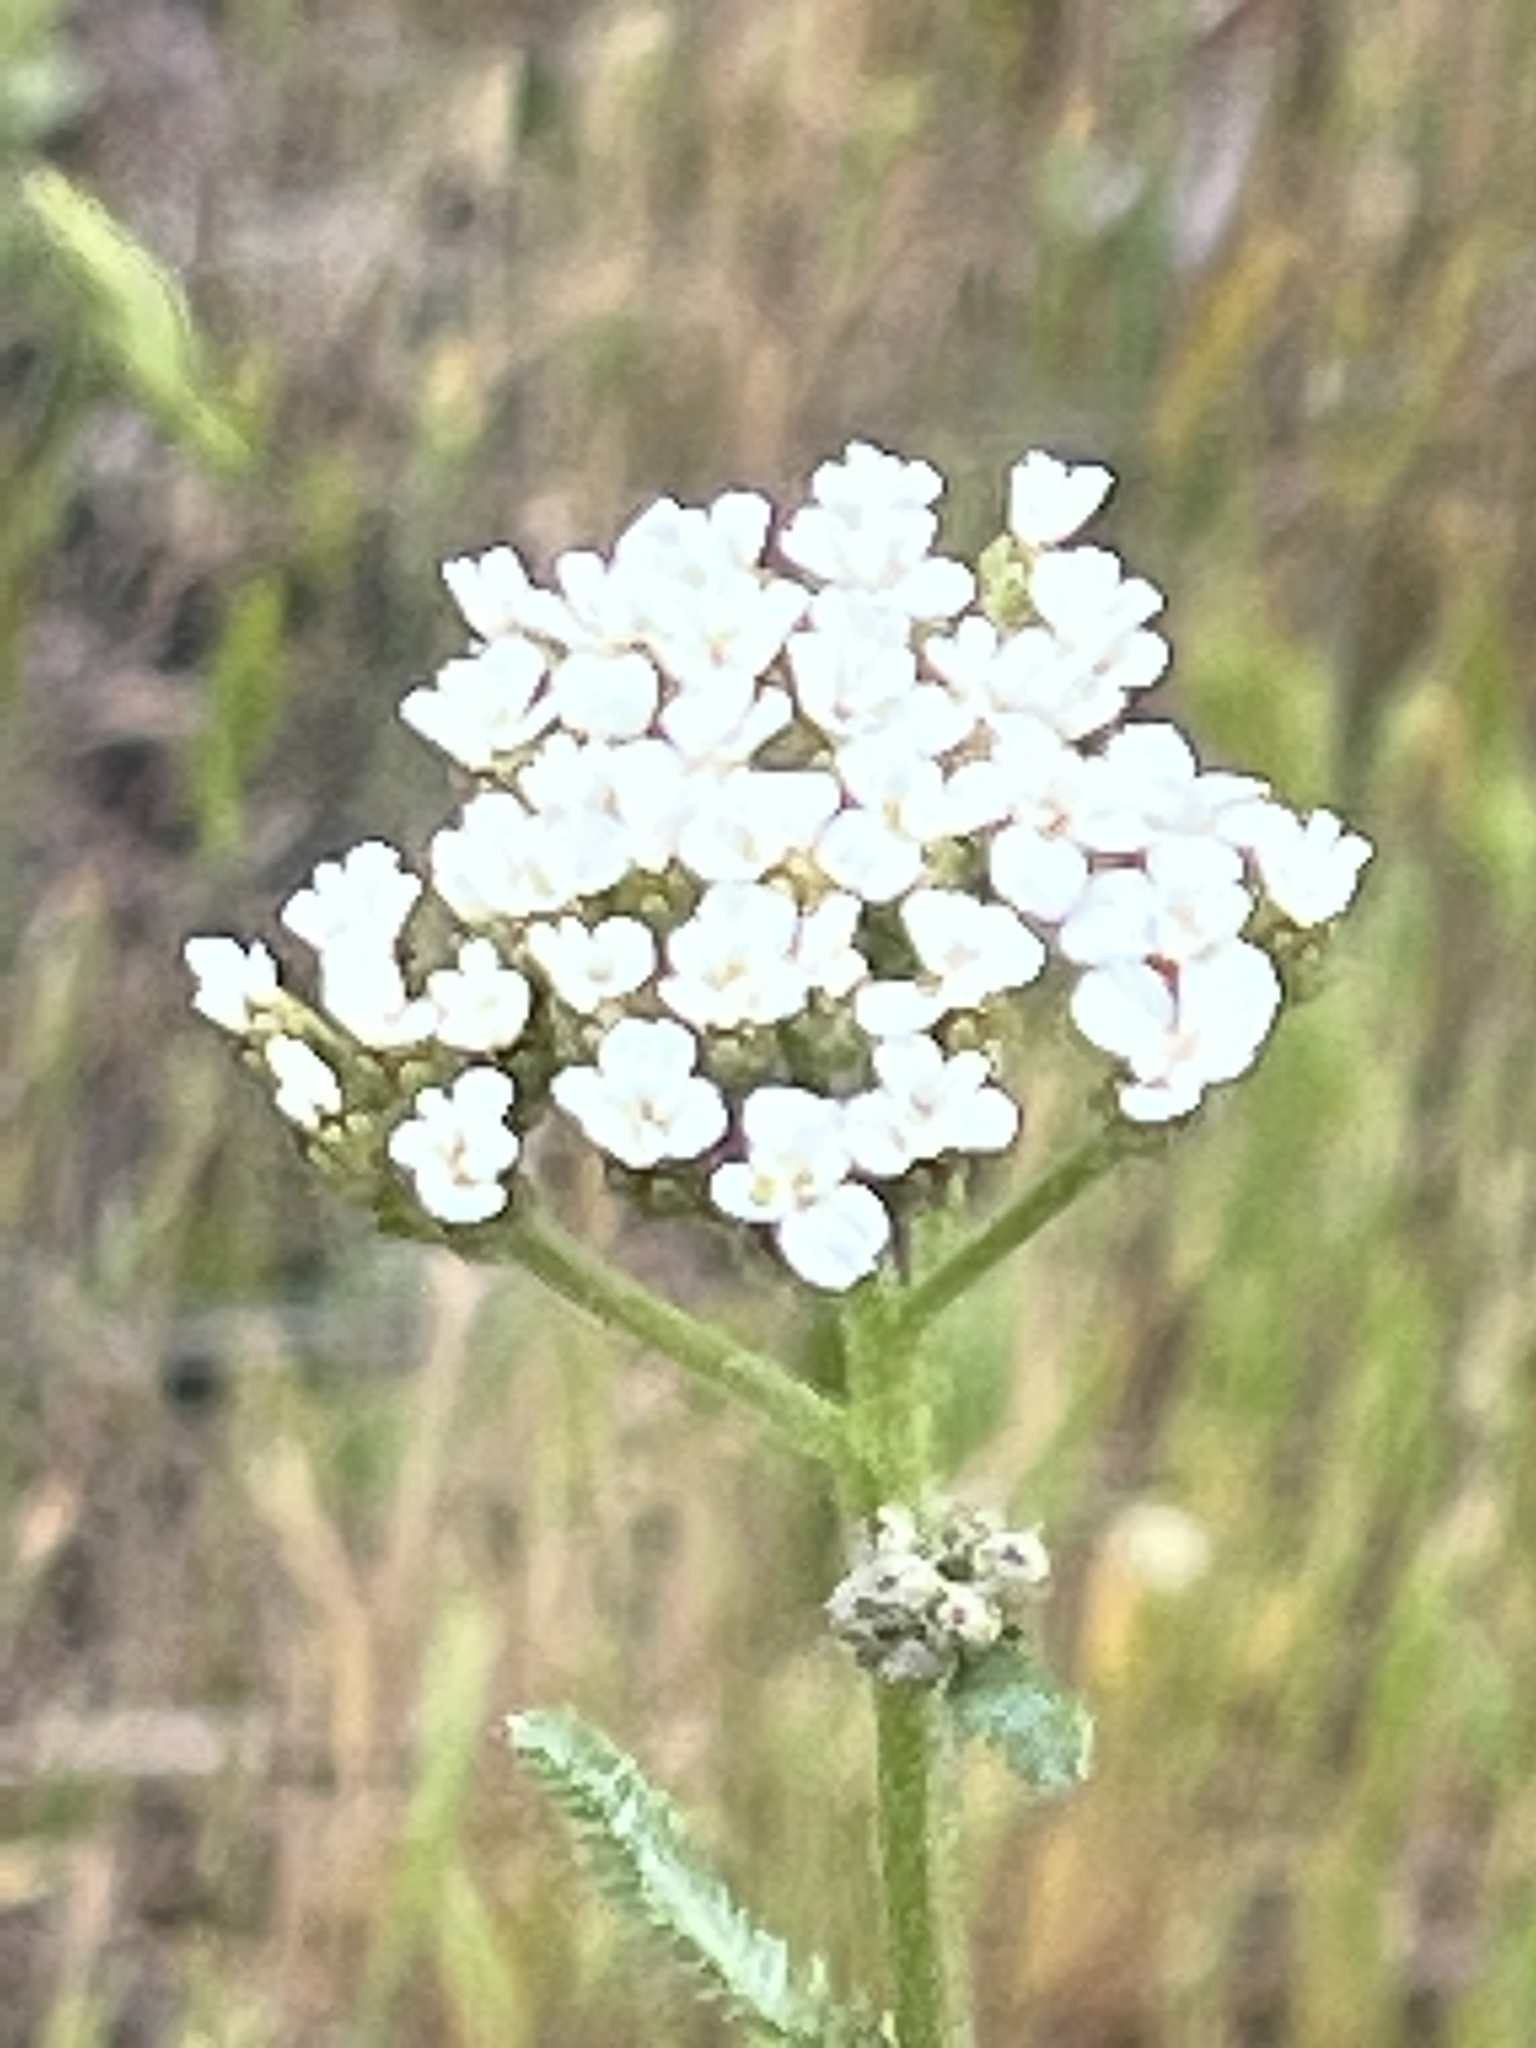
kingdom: Plantae
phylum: Tracheophyta
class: Magnoliopsida
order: Asterales
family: Asteraceae
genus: Achillea
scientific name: Achillea millefolium
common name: Yarrow
